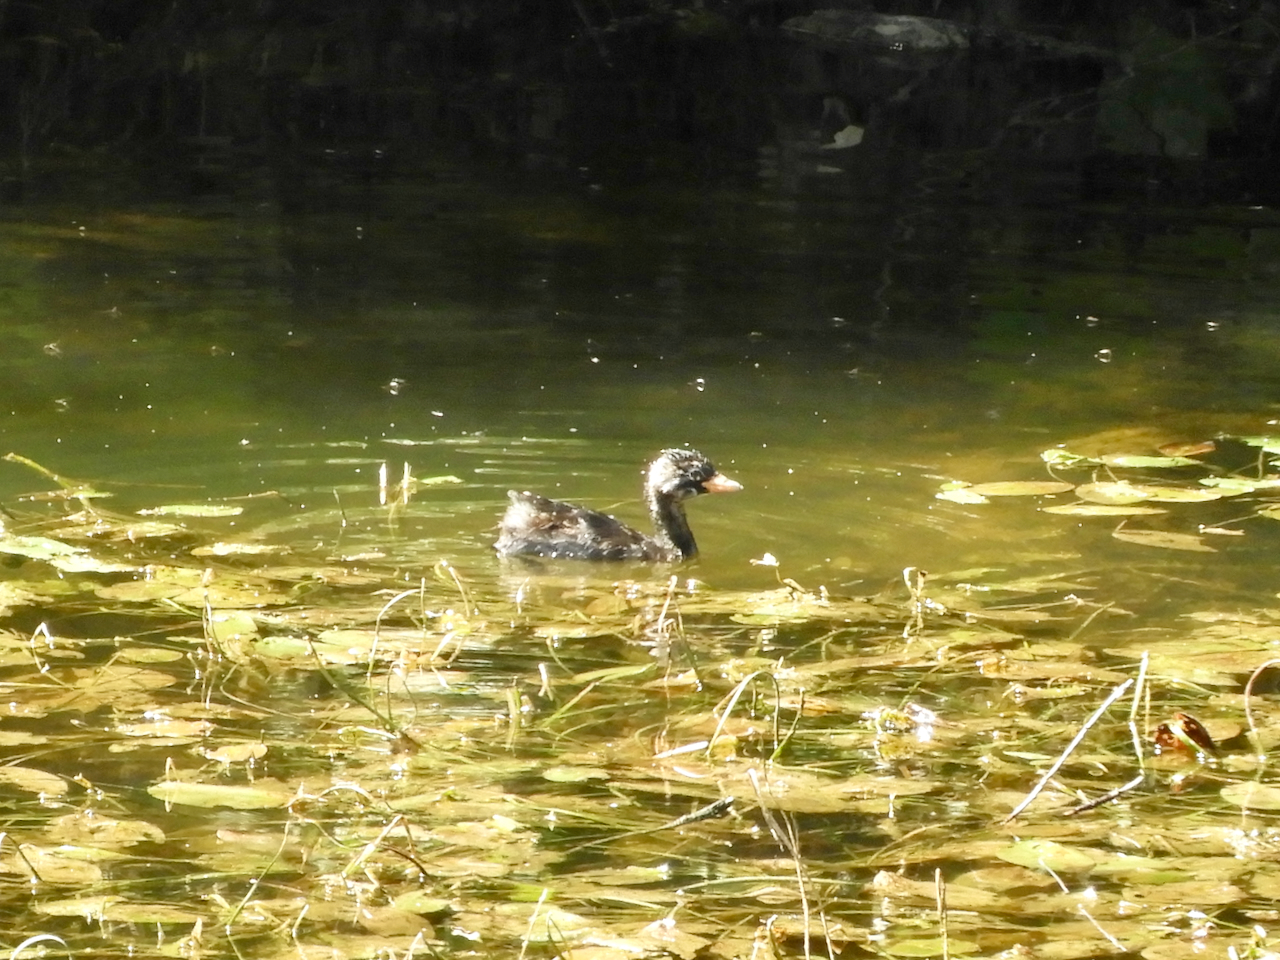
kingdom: Animalia
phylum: Chordata
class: Aves
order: Podicipediformes
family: Podicipedidae
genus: Tachybaptus
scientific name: Tachybaptus ruficollis
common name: Little grebe
